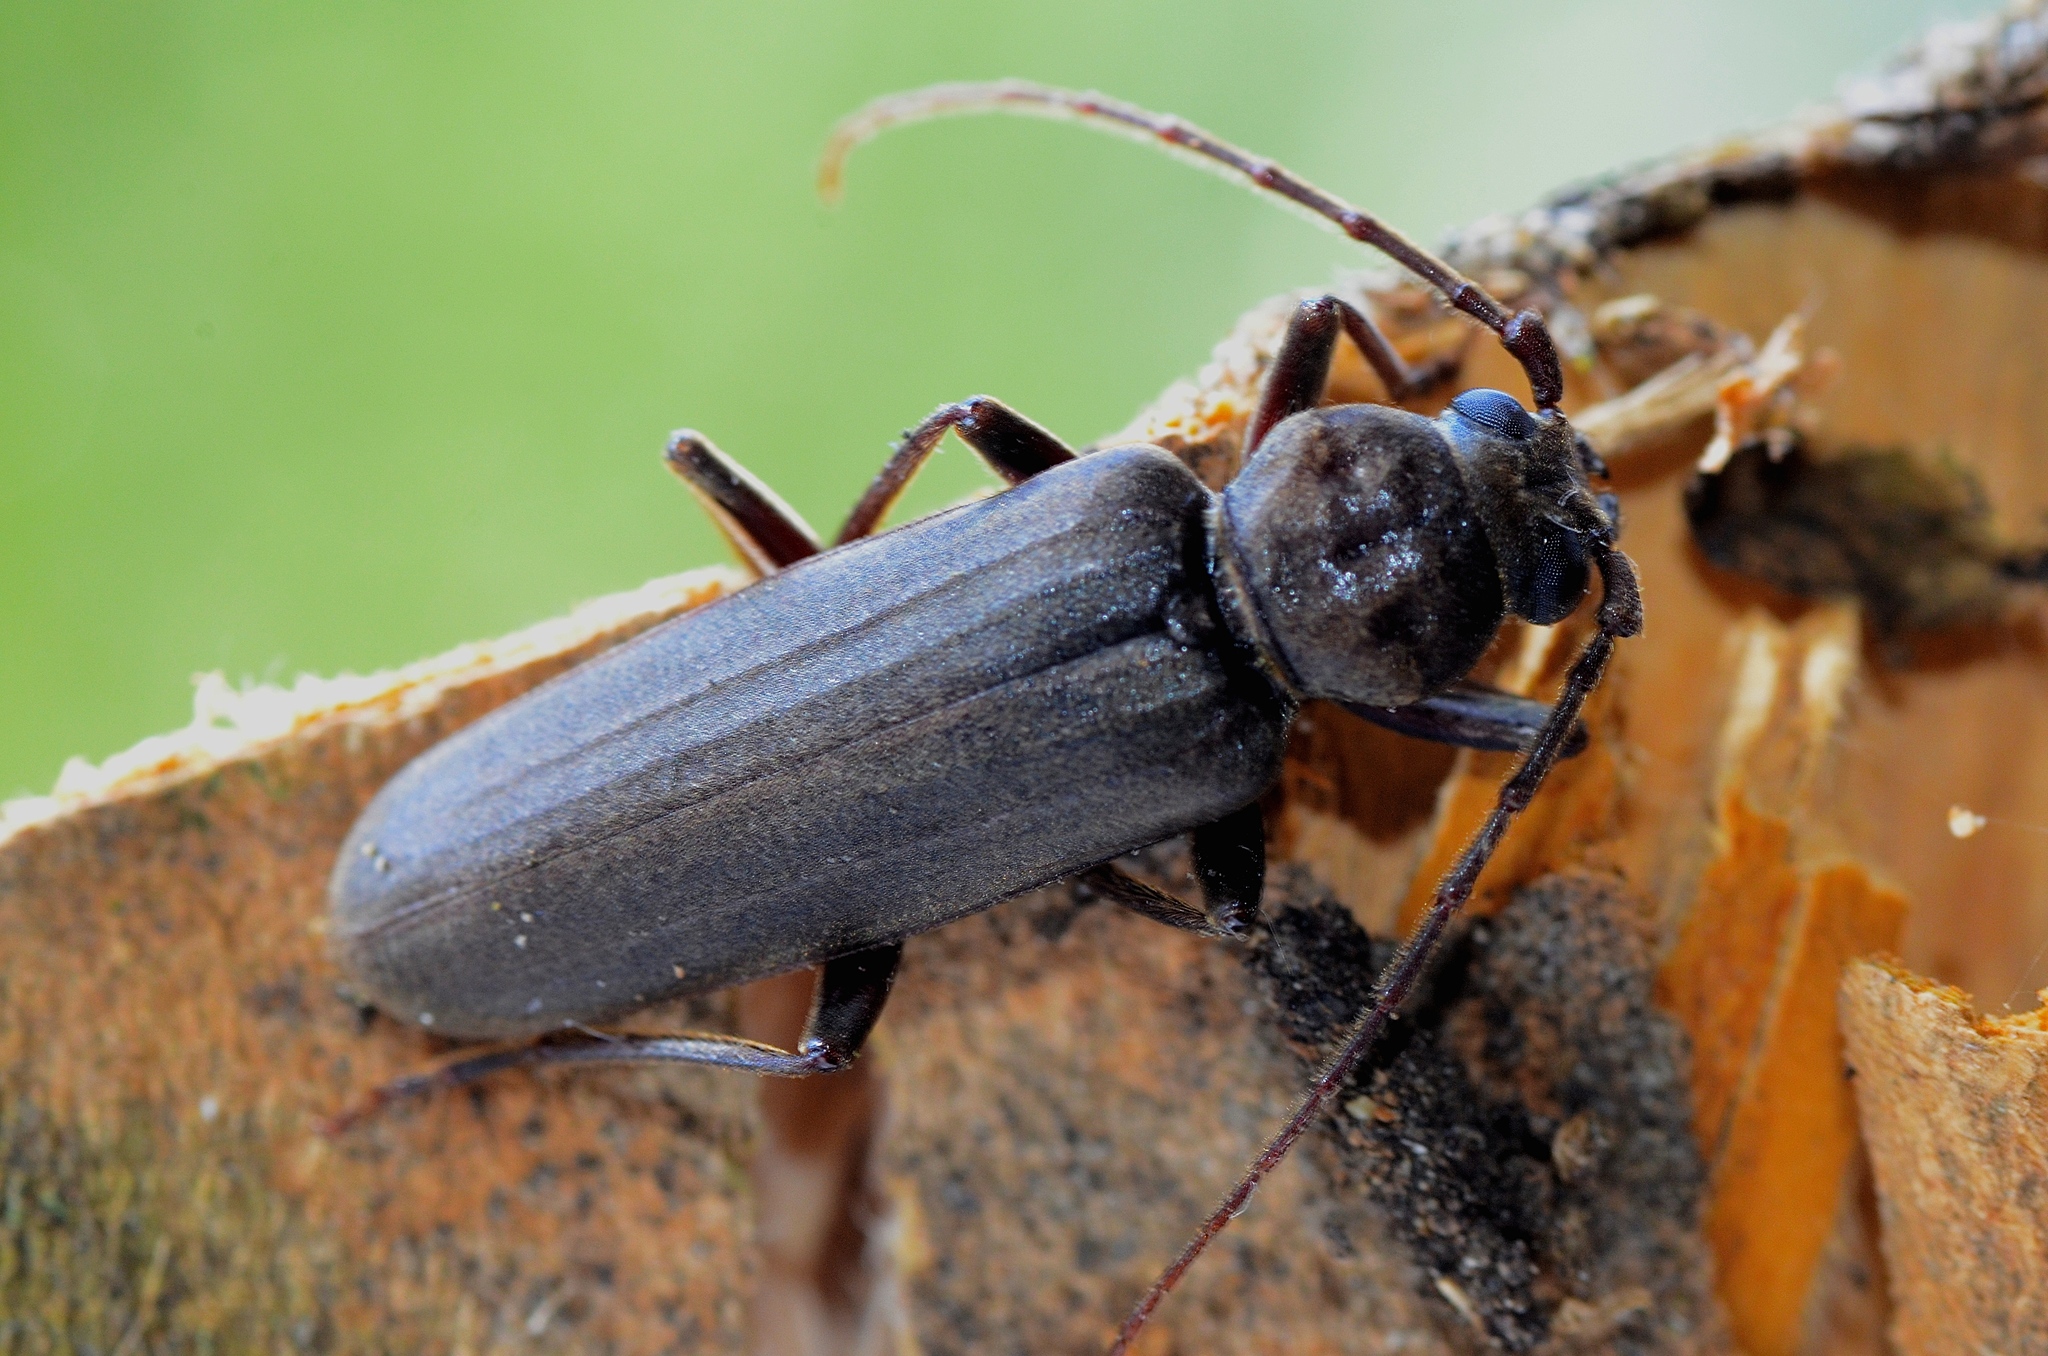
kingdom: Animalia
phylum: Arthropoda
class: Insecta
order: Coleoptera
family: Cerambycidae
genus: Arhopalus
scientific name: Arhopalus ferus
